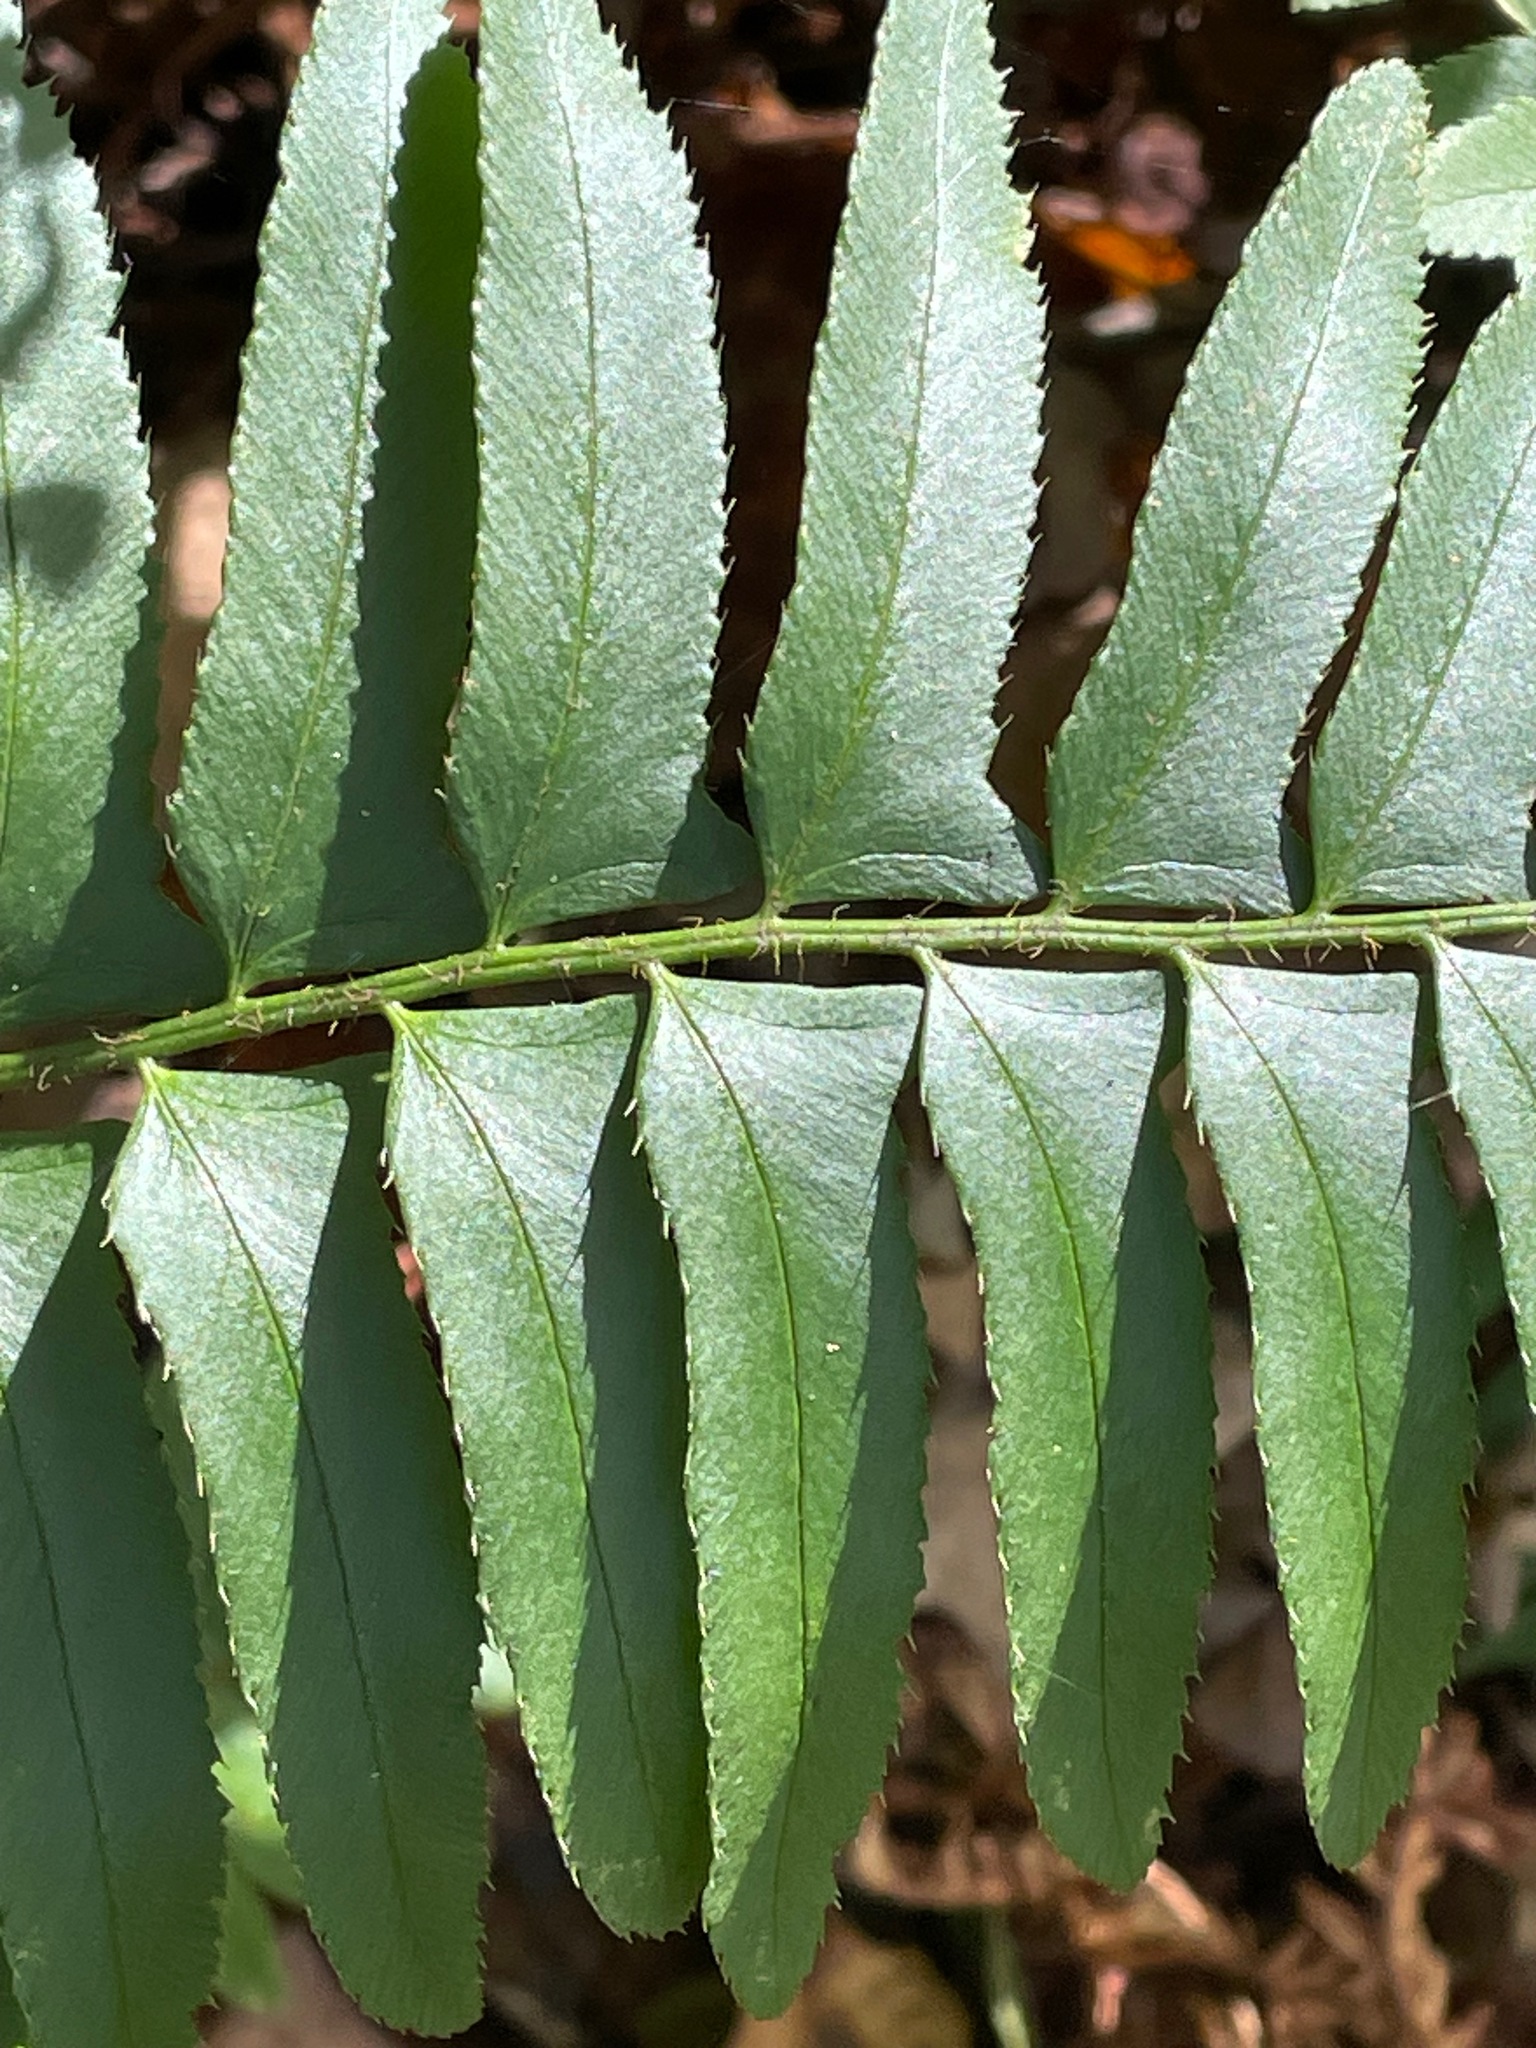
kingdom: Plantae
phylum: Tracheophyta
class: Polypodiopsida
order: Polypodiales
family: Dryopteridaceae
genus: Polystichum
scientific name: Polystichum acrostichoides
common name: Christmas fern
